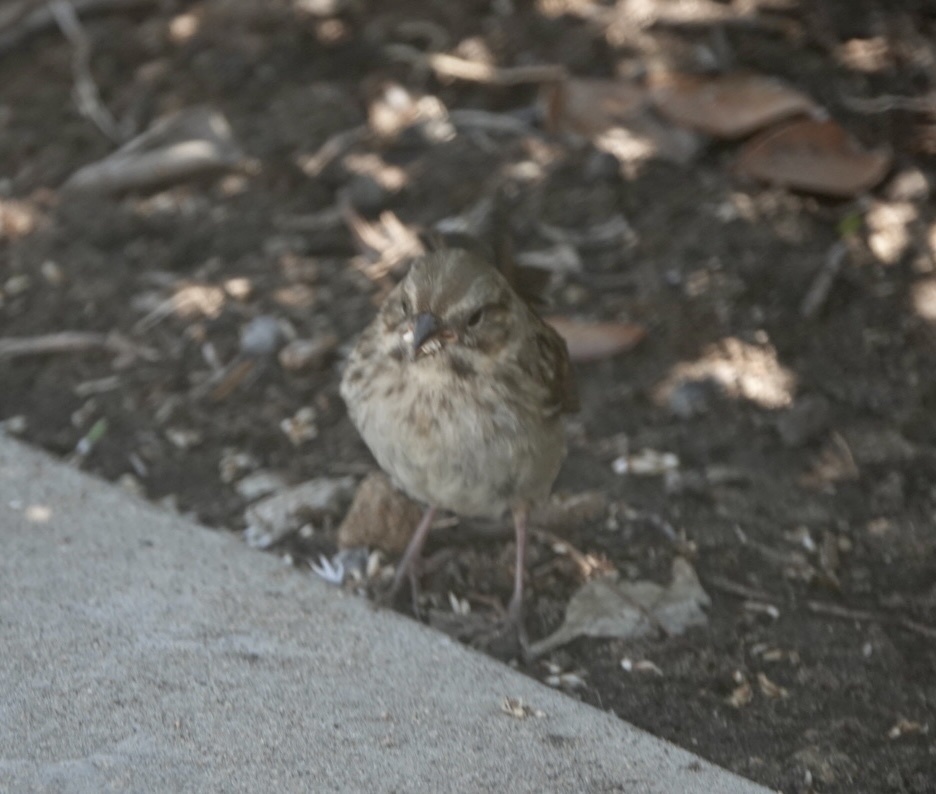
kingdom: Animalia
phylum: Chordata
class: Aves
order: Passeriformes
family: Passerellidae
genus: Melospiza
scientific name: Melospiza melodia
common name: Song sparrow
